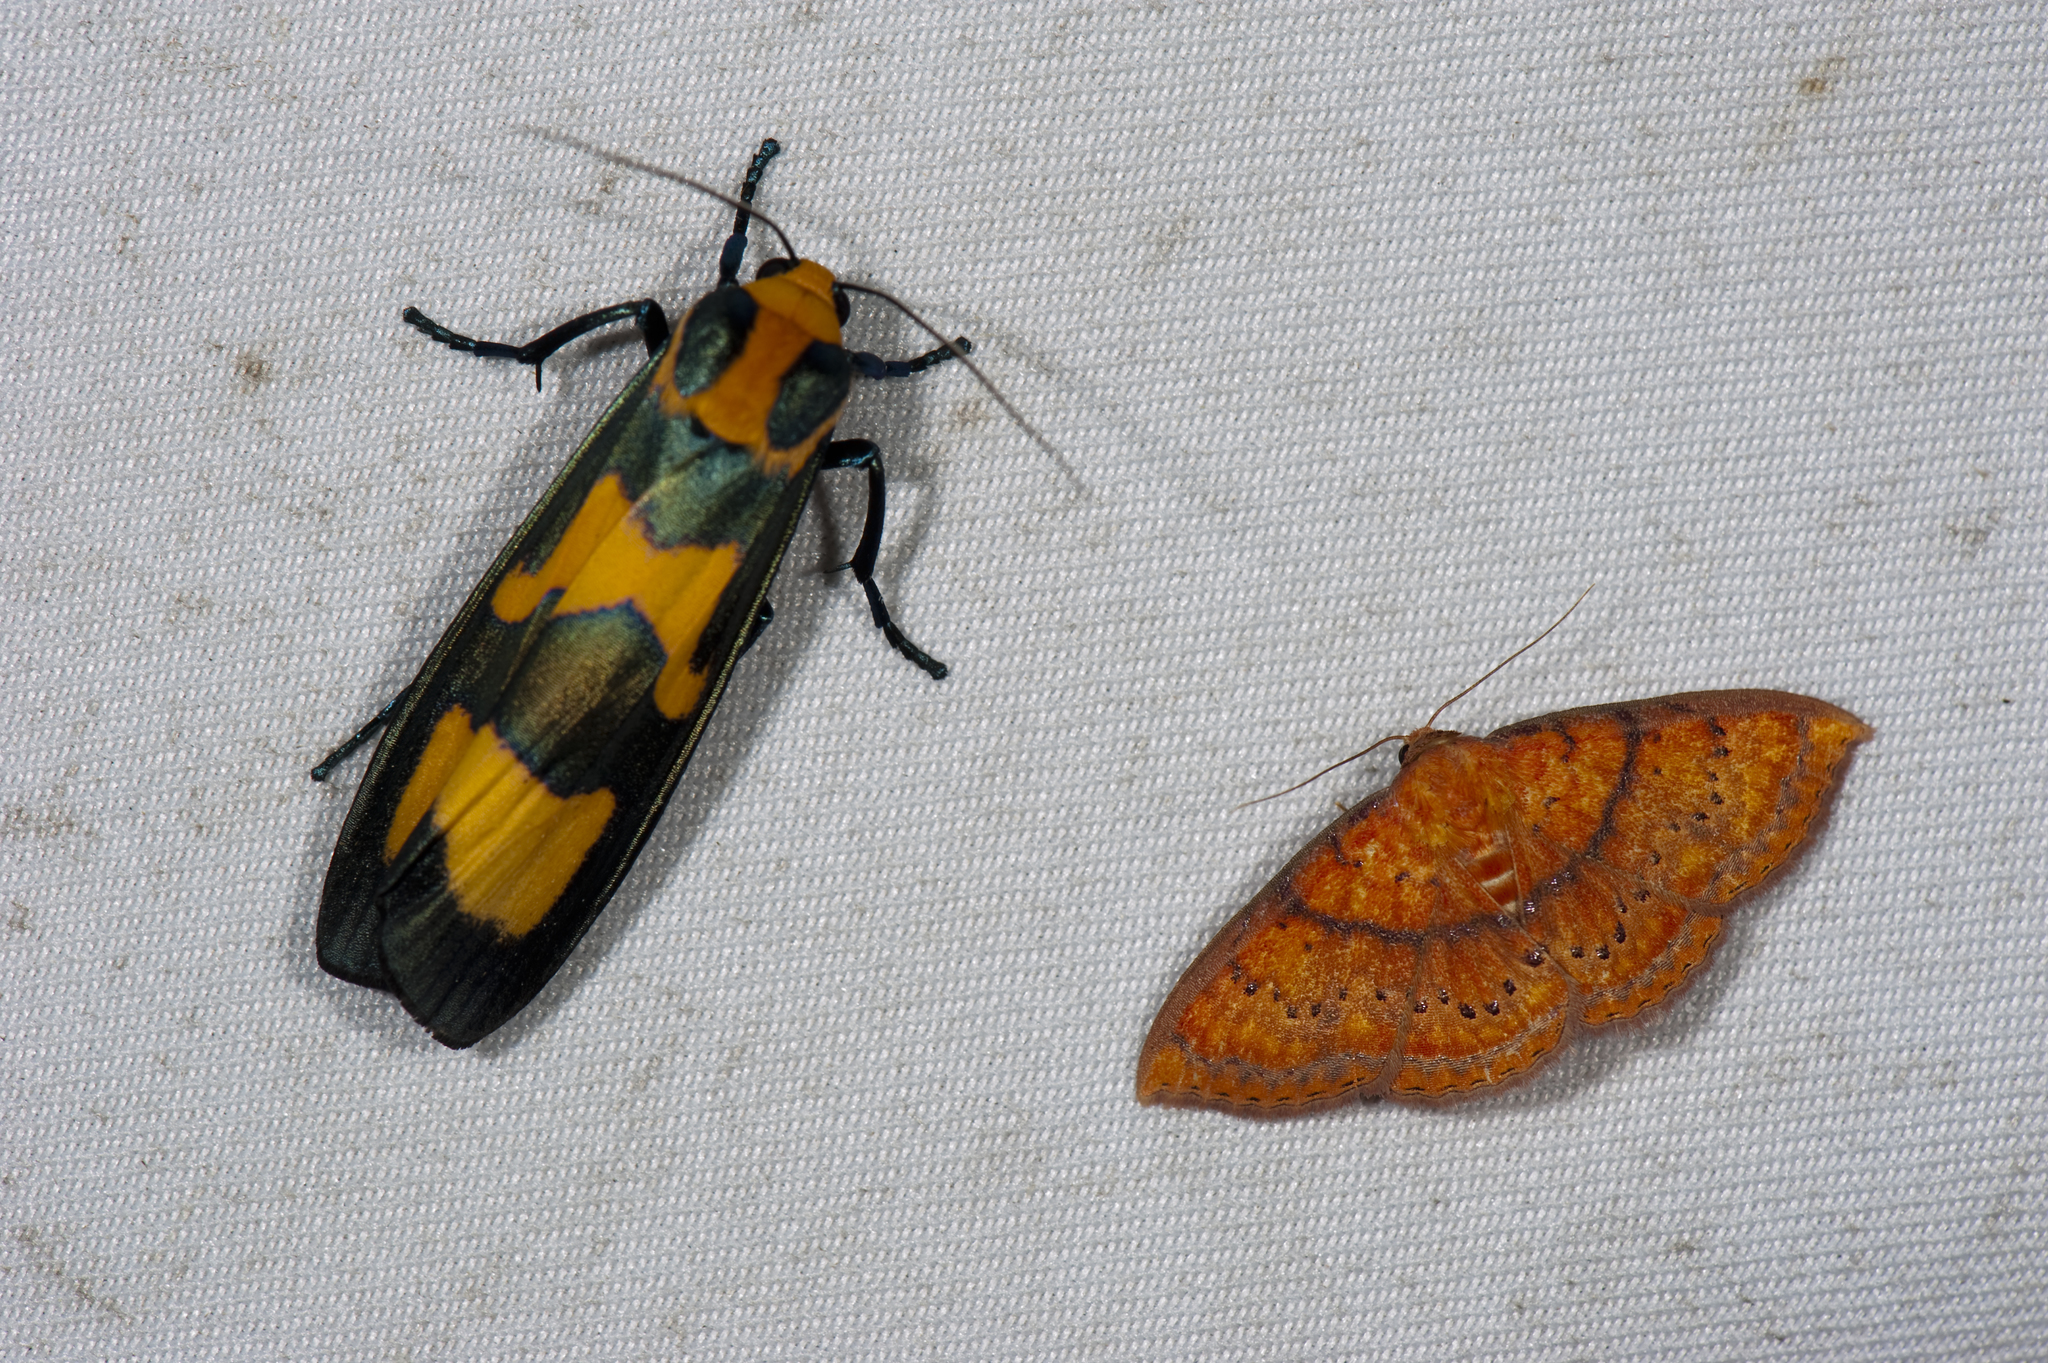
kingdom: Animalia
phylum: Arthropoda
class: Insecta
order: Lepidoptera
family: Erebidae
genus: Chrysaeglia
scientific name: Chrysaeglia magnifica
